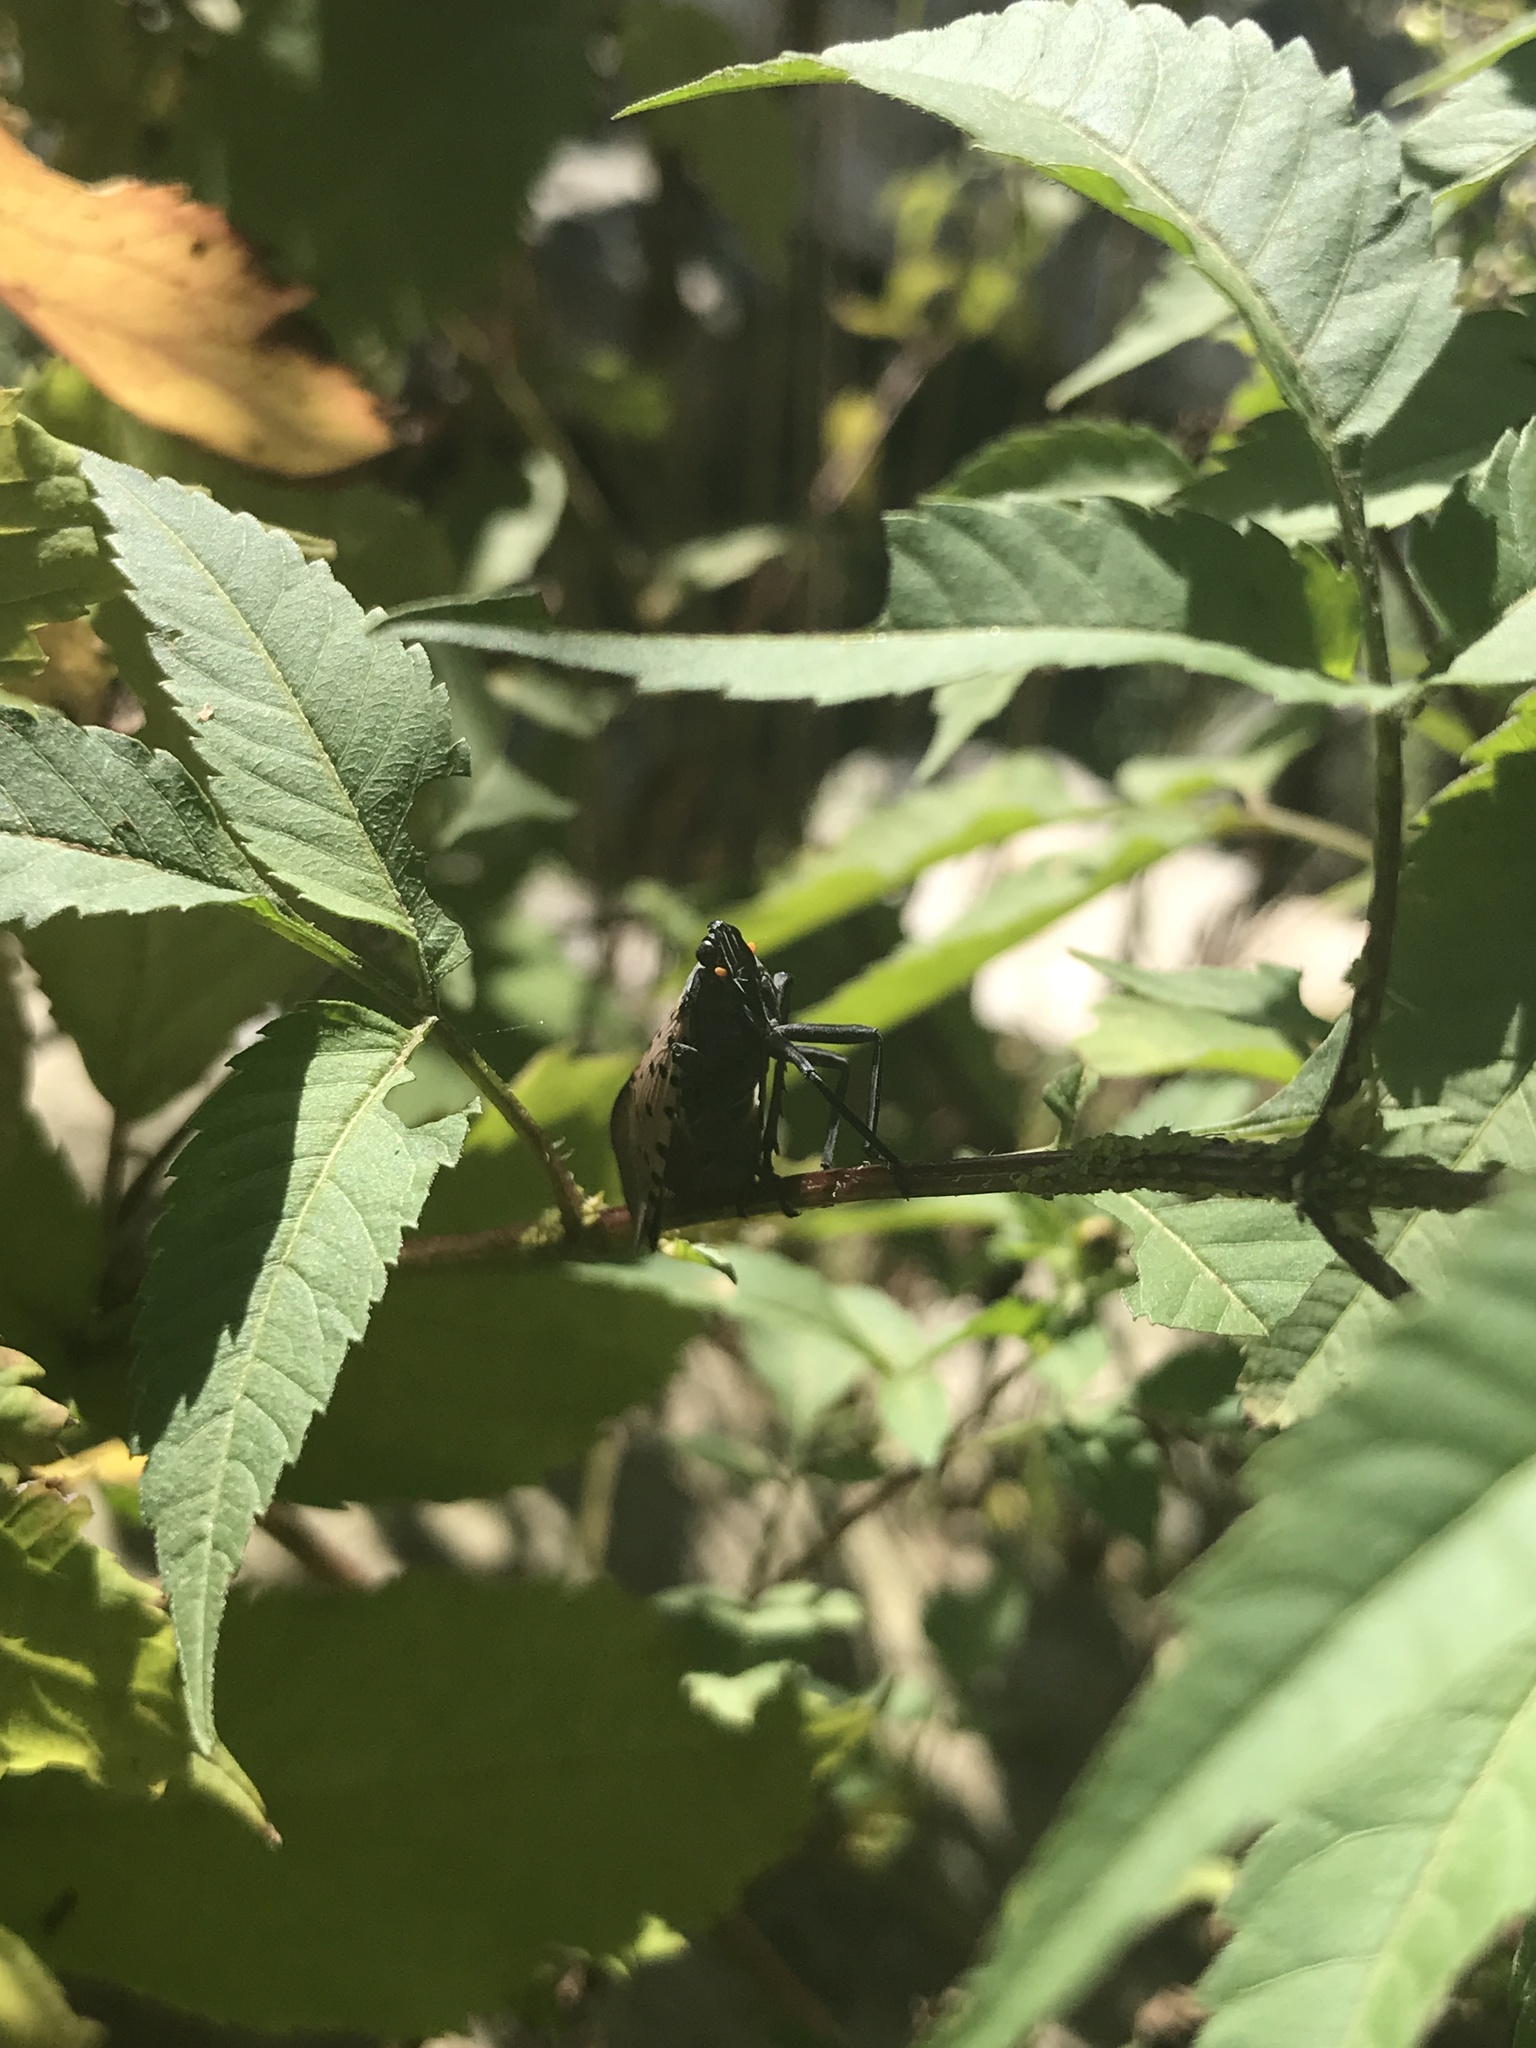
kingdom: Animalia
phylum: Arthropoda
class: Insecta
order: Hemiptera
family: Fulgoridae
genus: Lycorma
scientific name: Lycorma delicatula
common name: Spotted lanternfly
